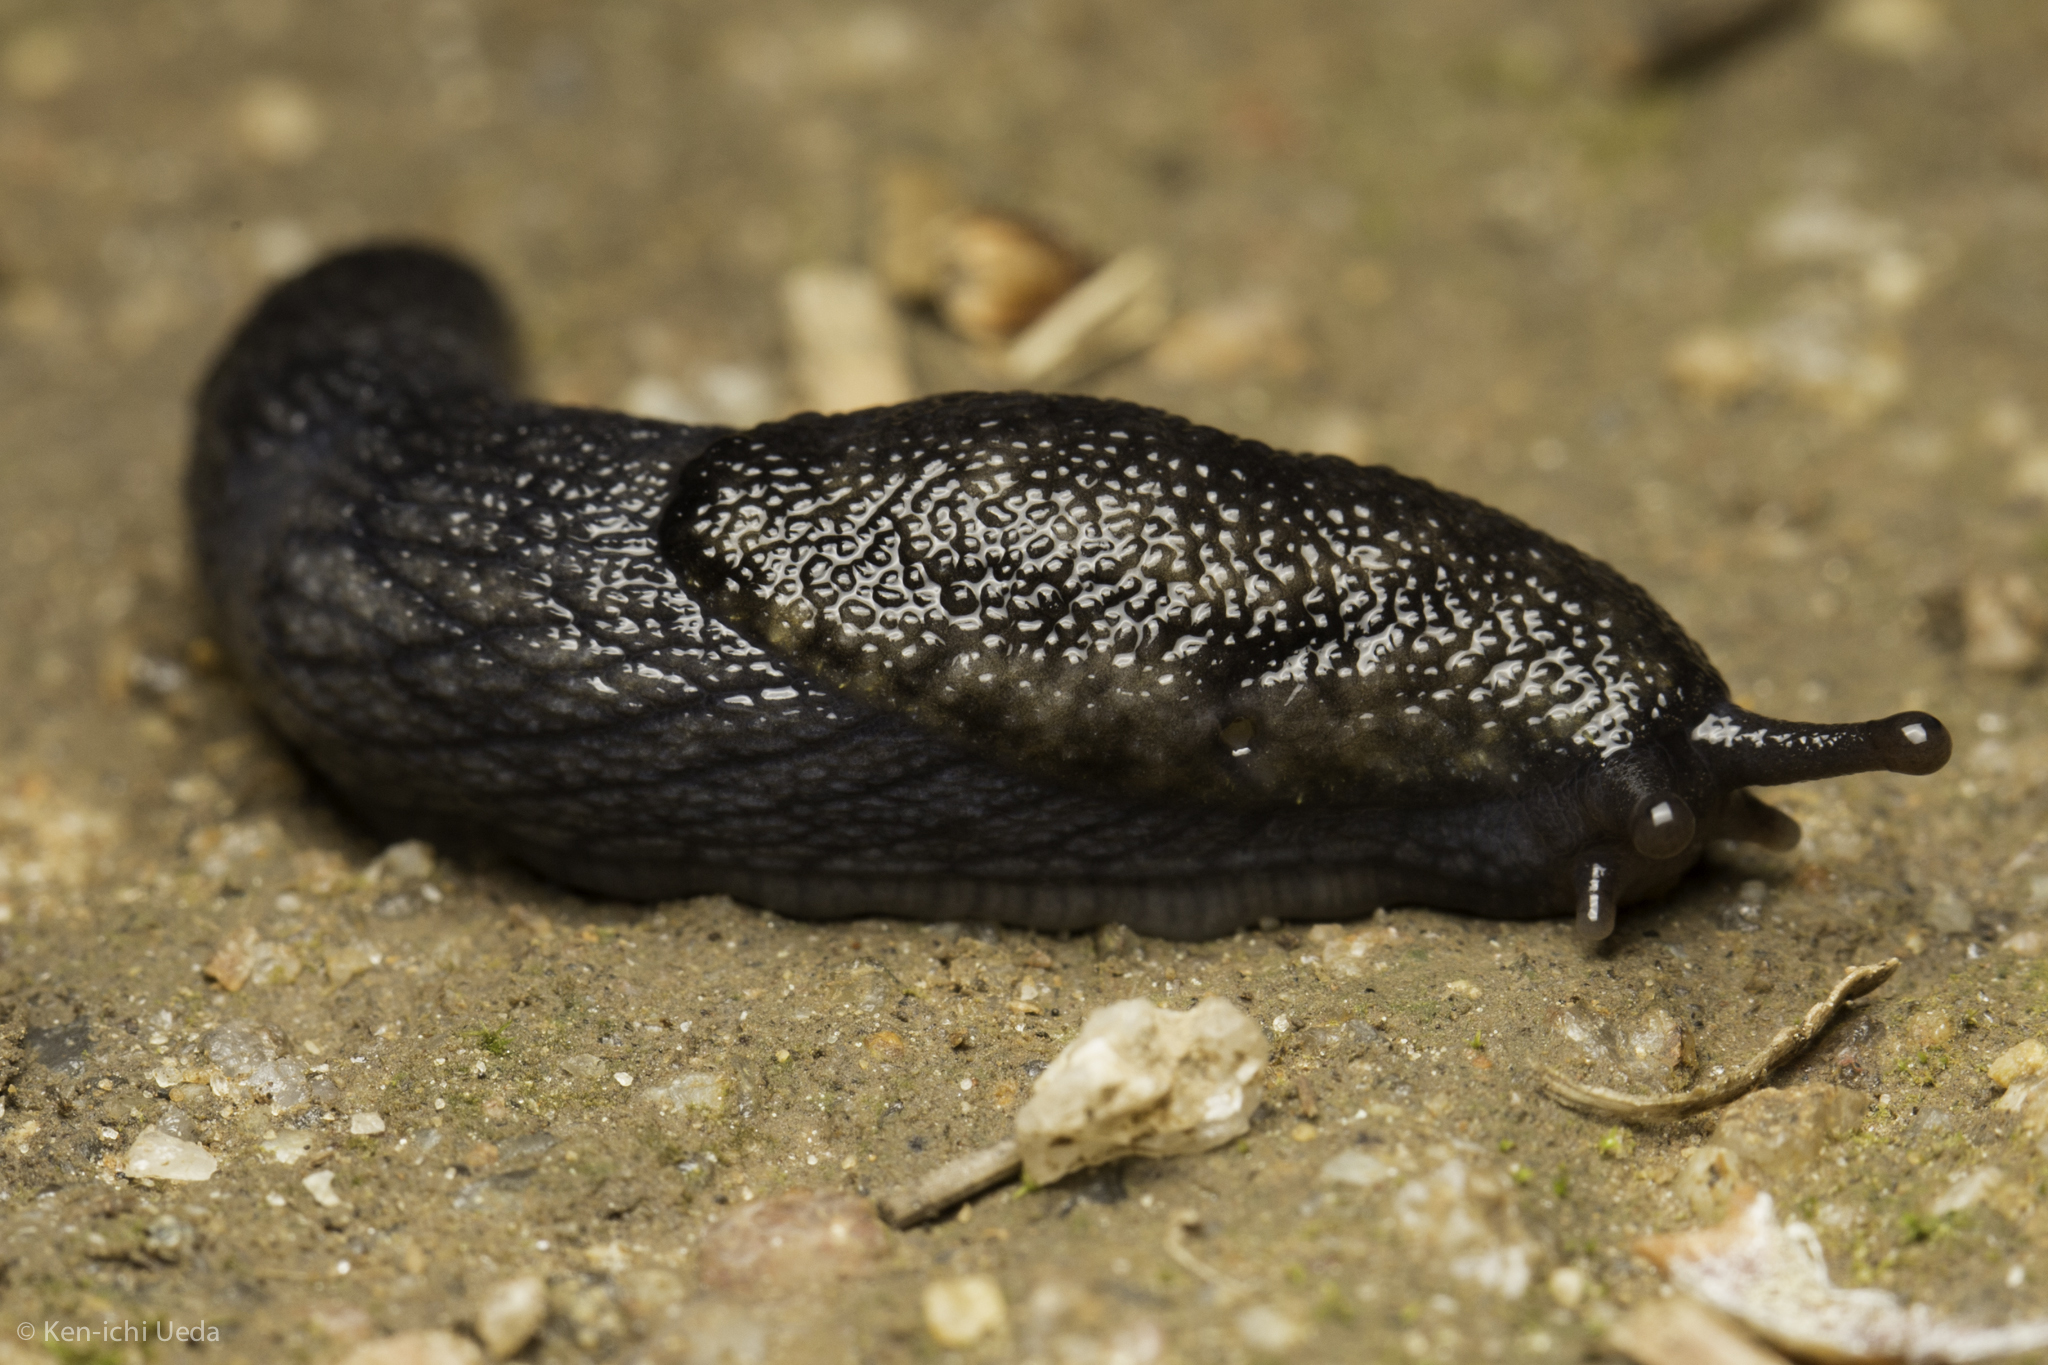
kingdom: Animalia
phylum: Mollusca
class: Gastropoda
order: Stylommatophora
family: Ariolimacidae
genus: Prophysaon
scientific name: Prophysaon andersonii
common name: Reticulate taildropper
